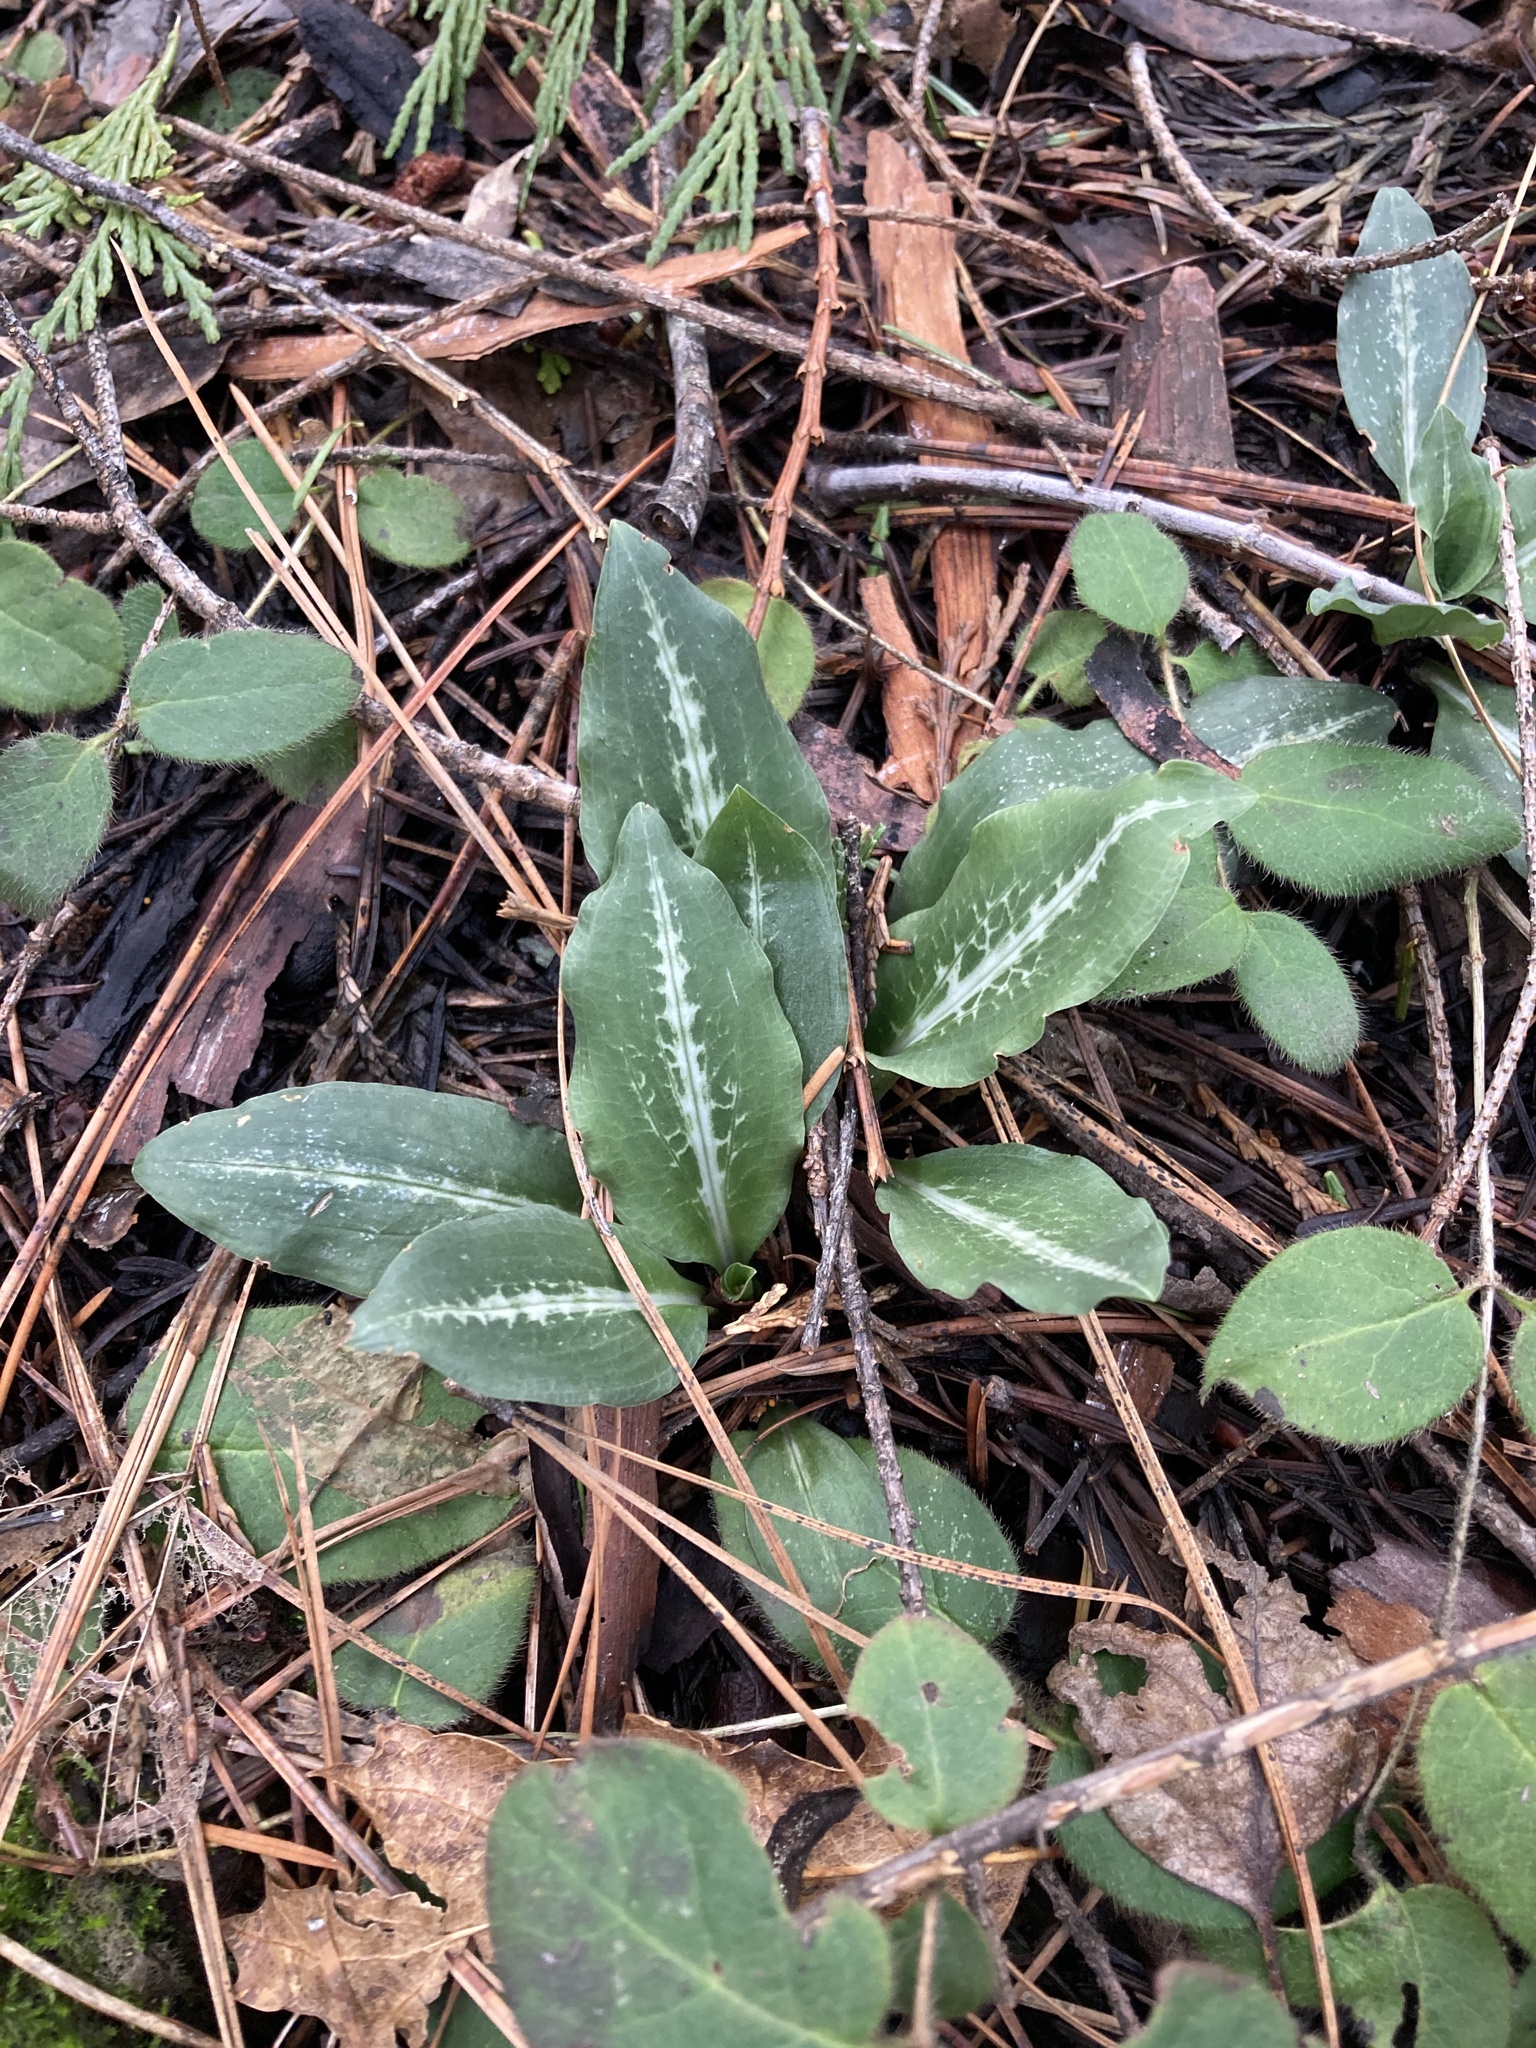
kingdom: Plantae
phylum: Tracheophyta
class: Liliopsida
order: Asparagales
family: Orchidaceae
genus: Goodyera
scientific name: Goodyera oblongifolia
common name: Giant rattlesnake-plantain
